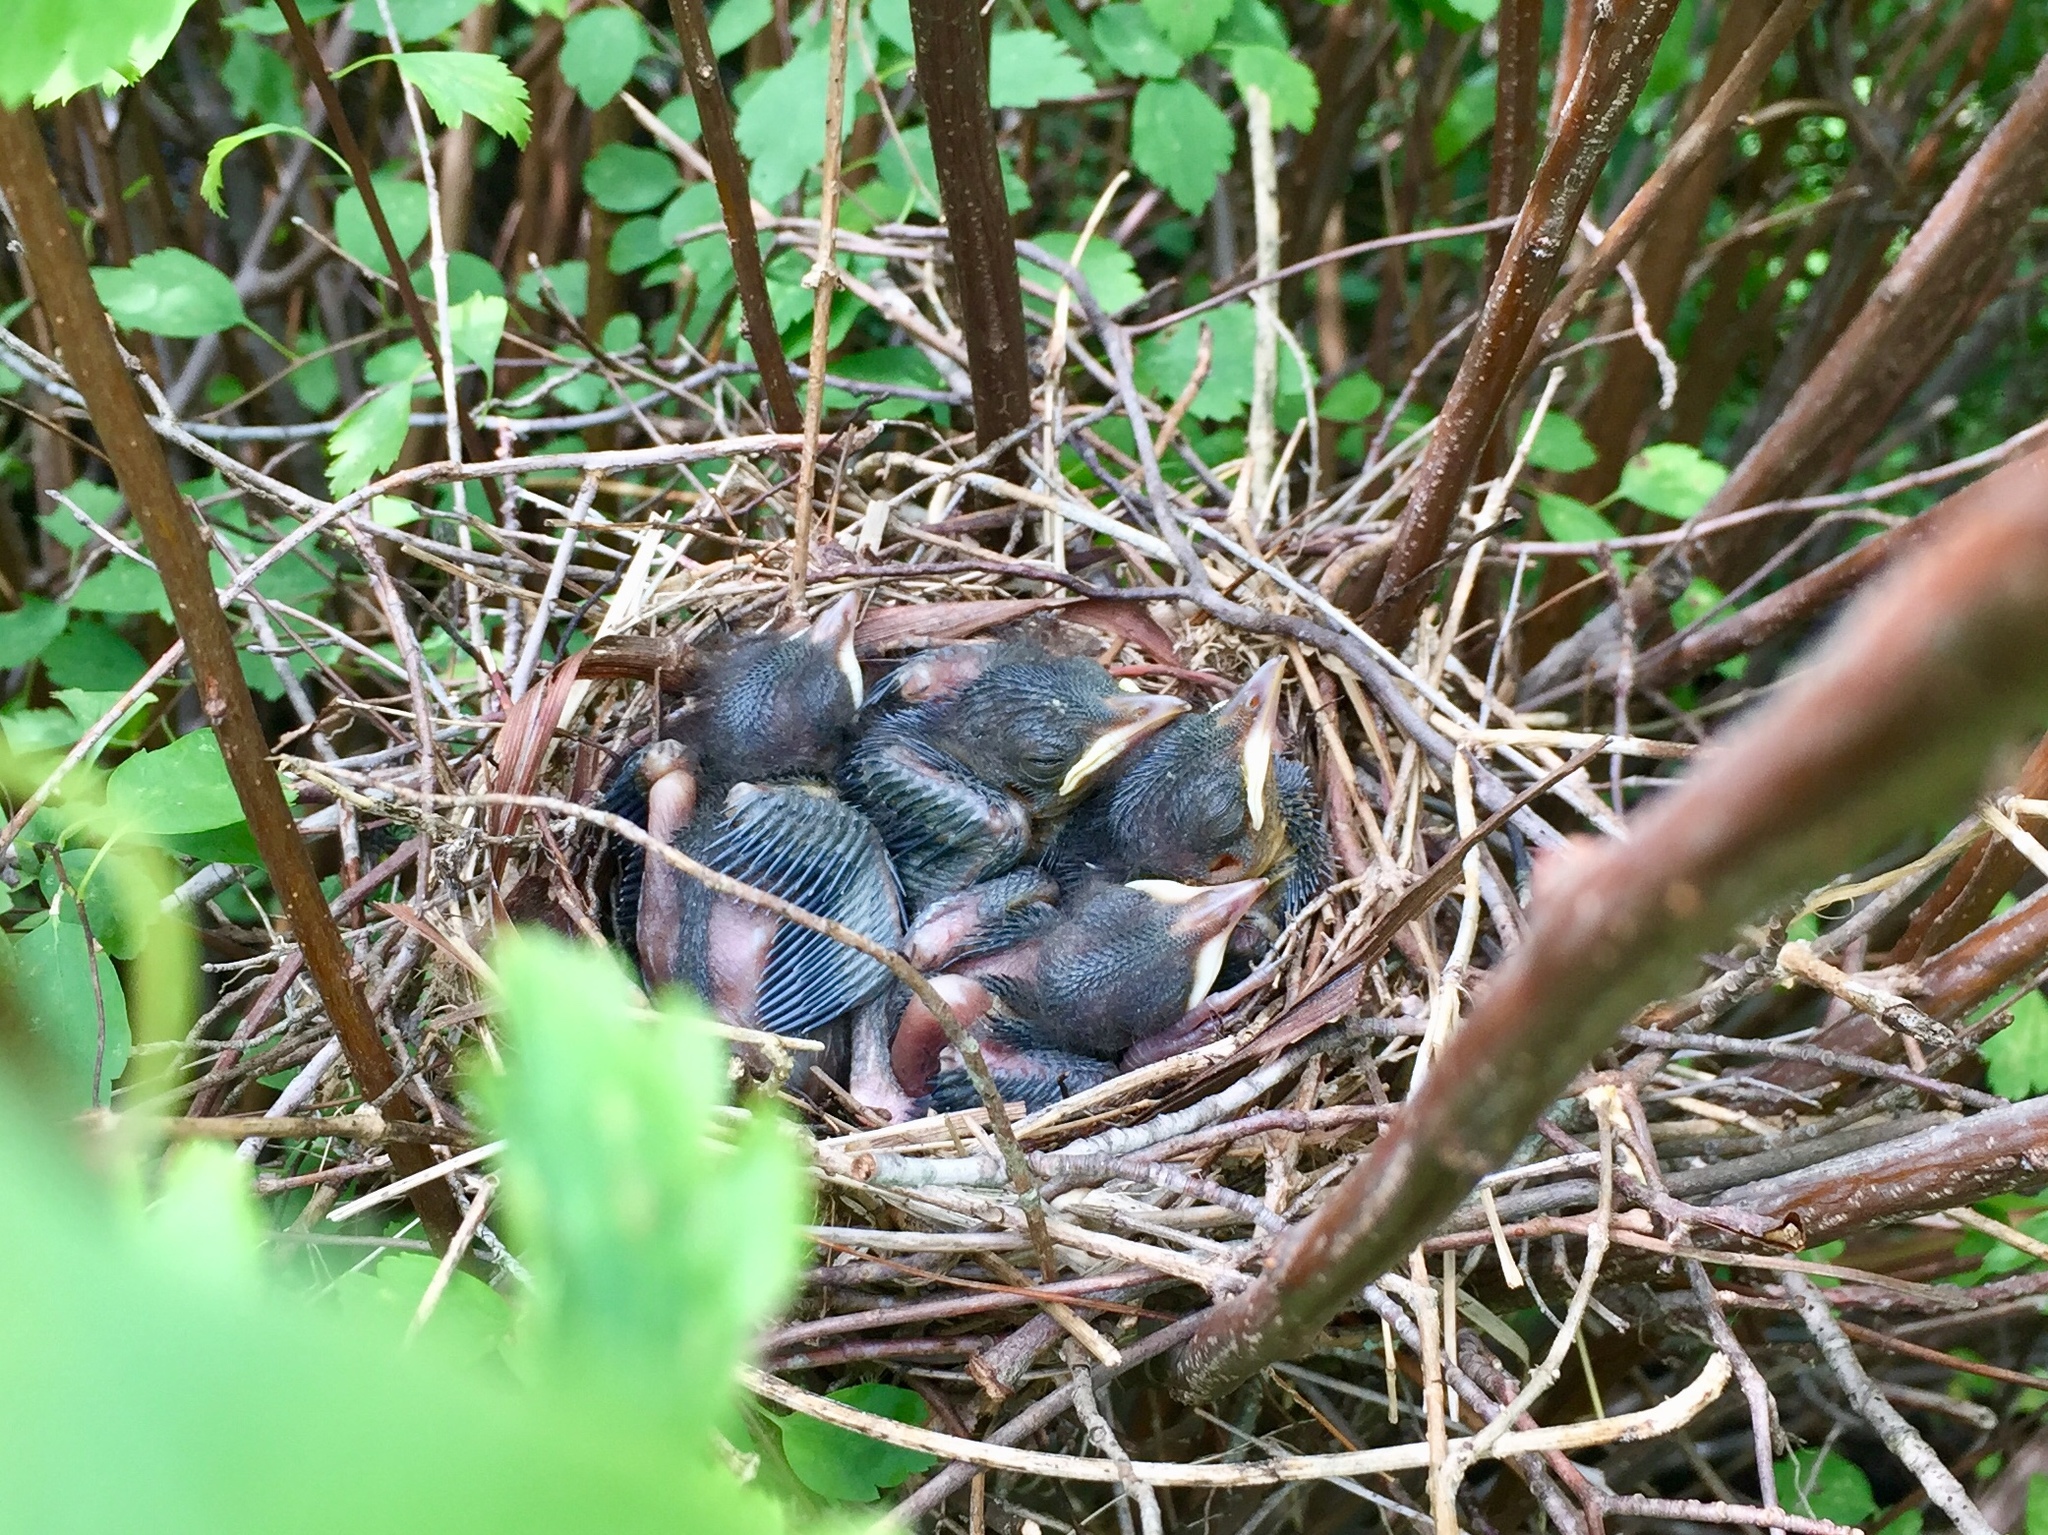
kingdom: Animalia
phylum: Chordata
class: Aves
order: Passeriformes
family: Mimidae
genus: Dumetella
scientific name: Dumetella carolinensis
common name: Gray catbird
